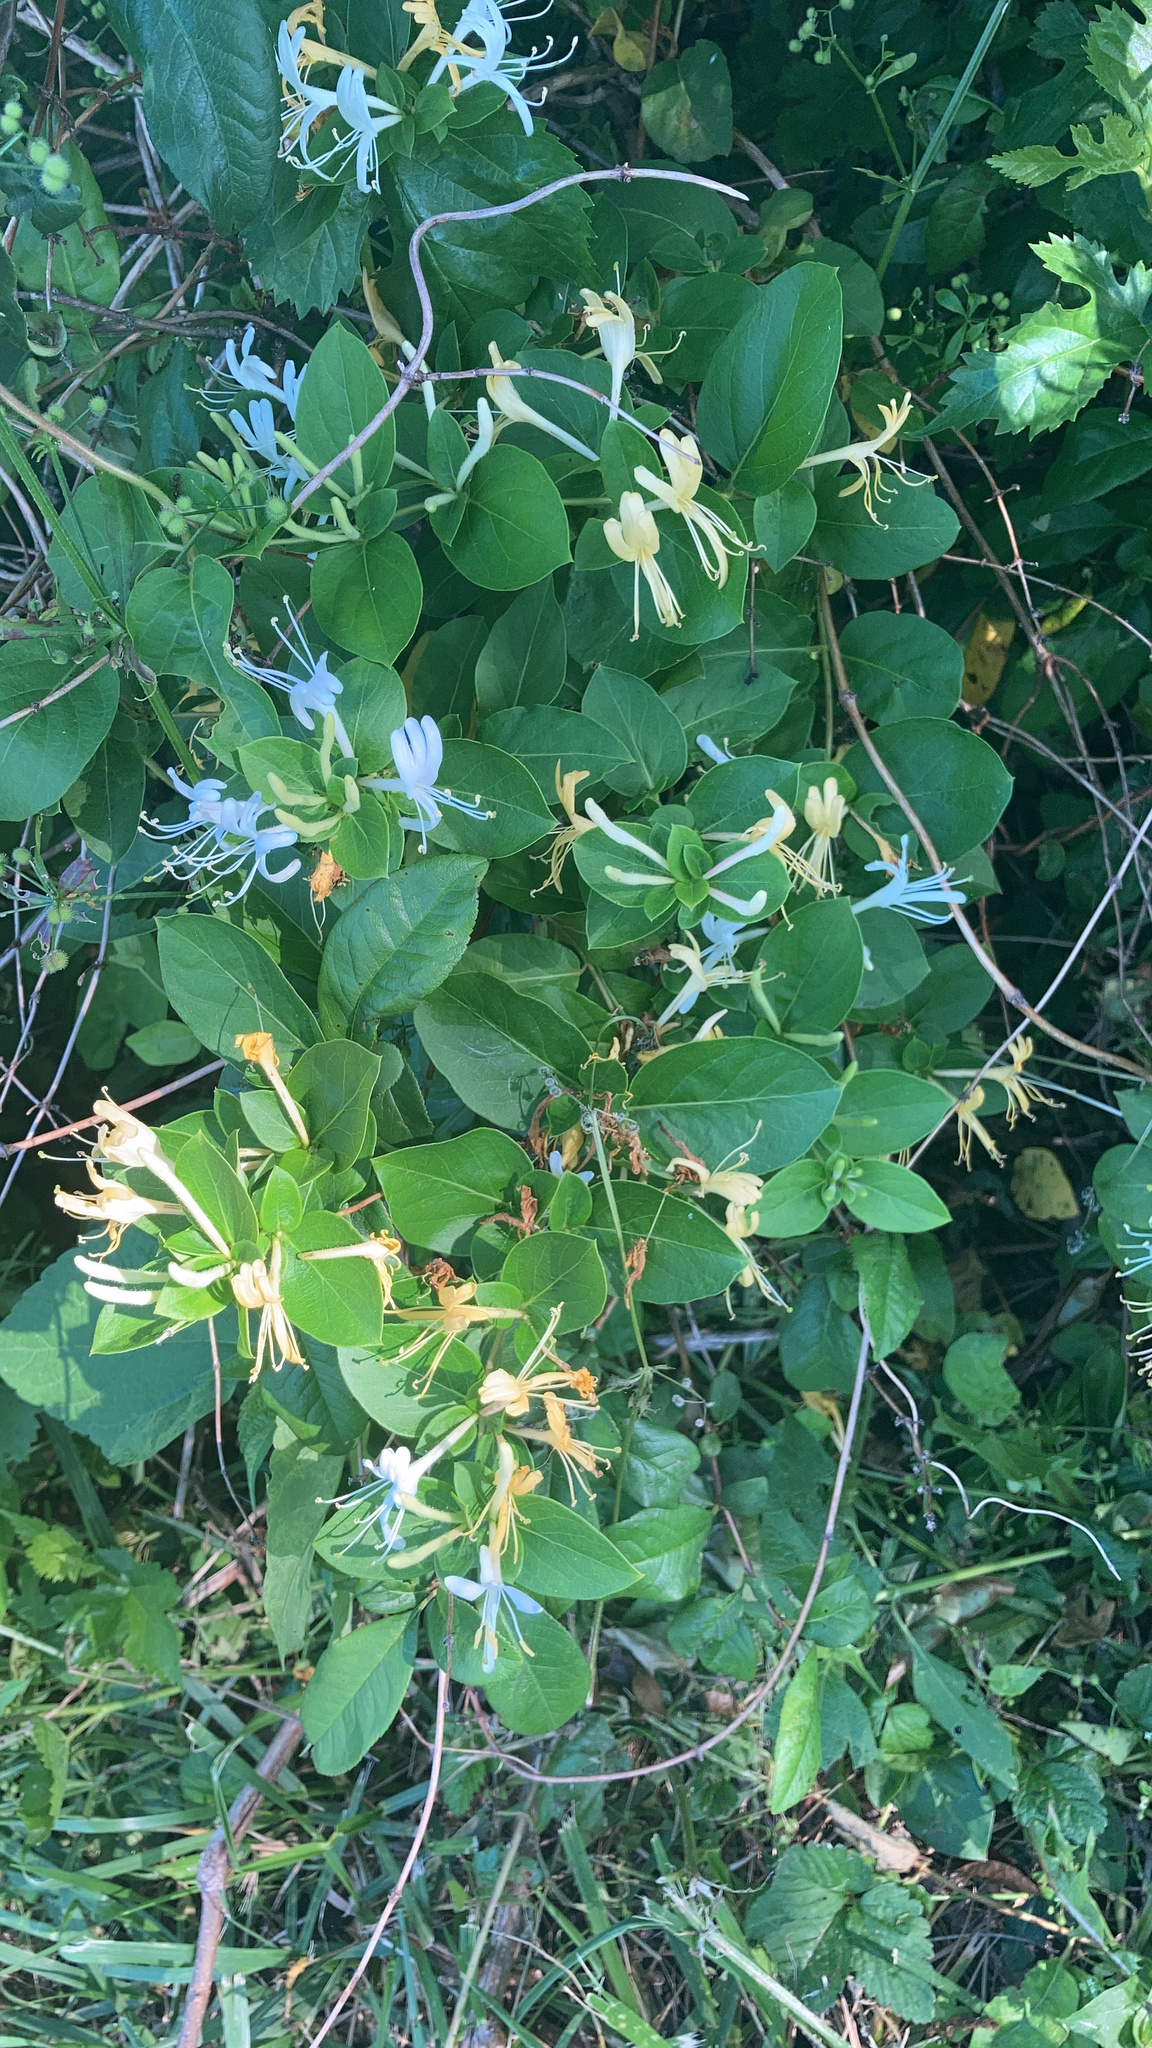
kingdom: Plantae
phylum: Tracheophyta
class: Magnoliopsida
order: Dipsacales
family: Caprifoliaceae
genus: Lonicera
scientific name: Lonicera japonica
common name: Japanese honeysuckle
